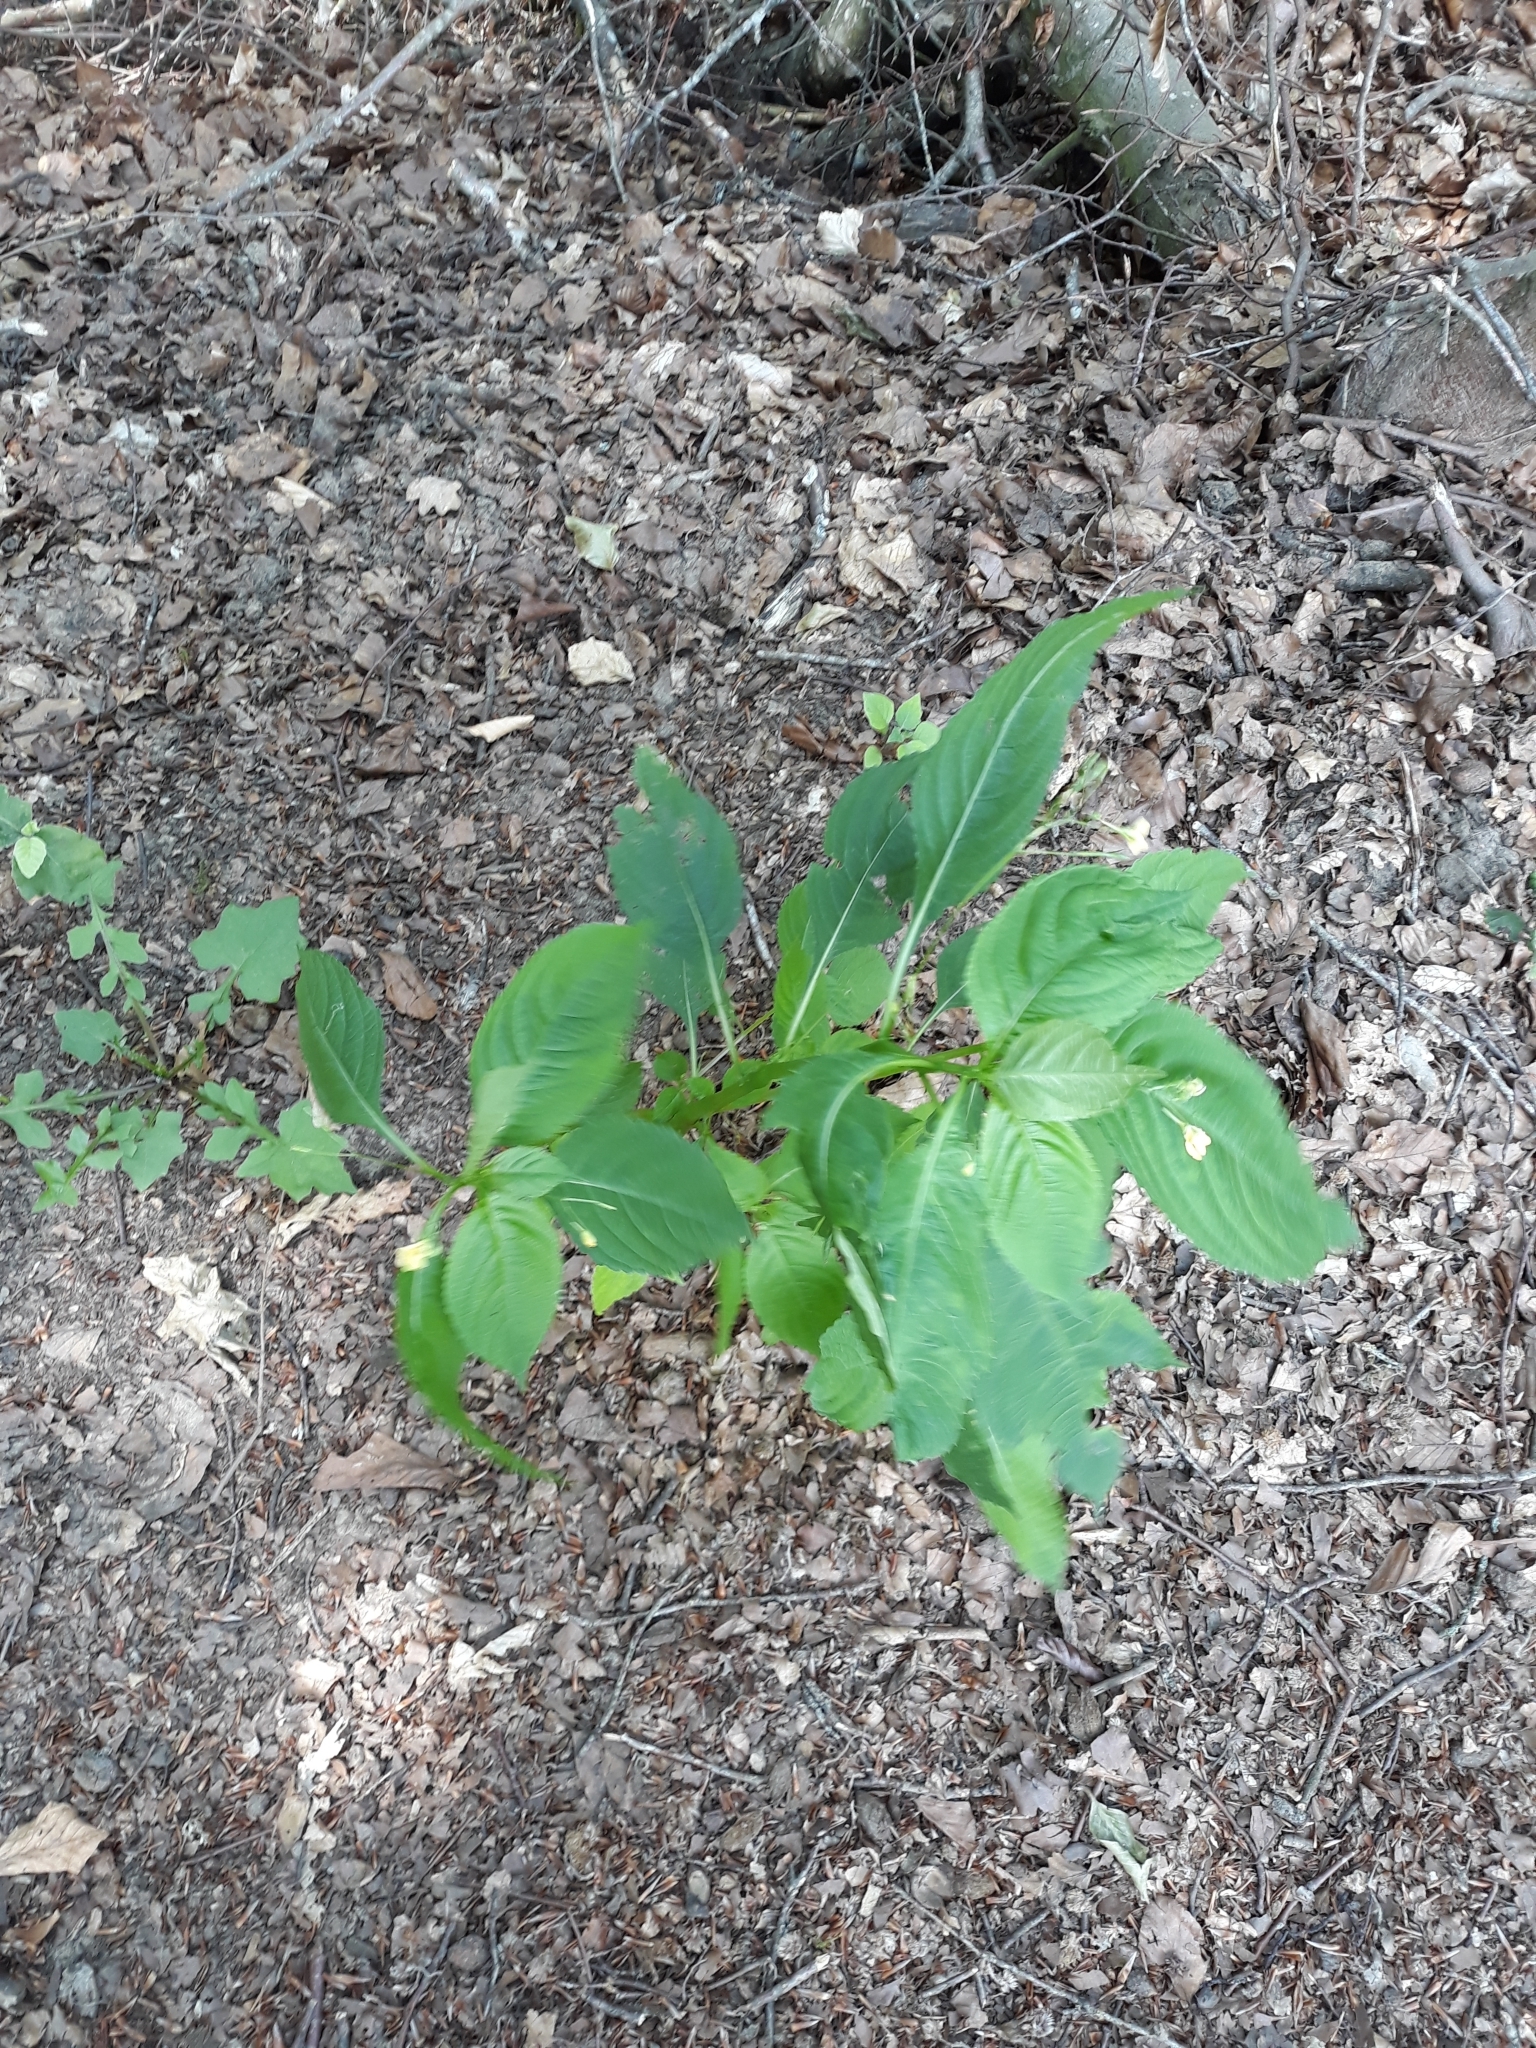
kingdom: Plantae
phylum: Tracheophyta
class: Magnoliopsida
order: Ericales
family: Balsaminaceae
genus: Impatiens
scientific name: Impatiens parviflora
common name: Small balsam
